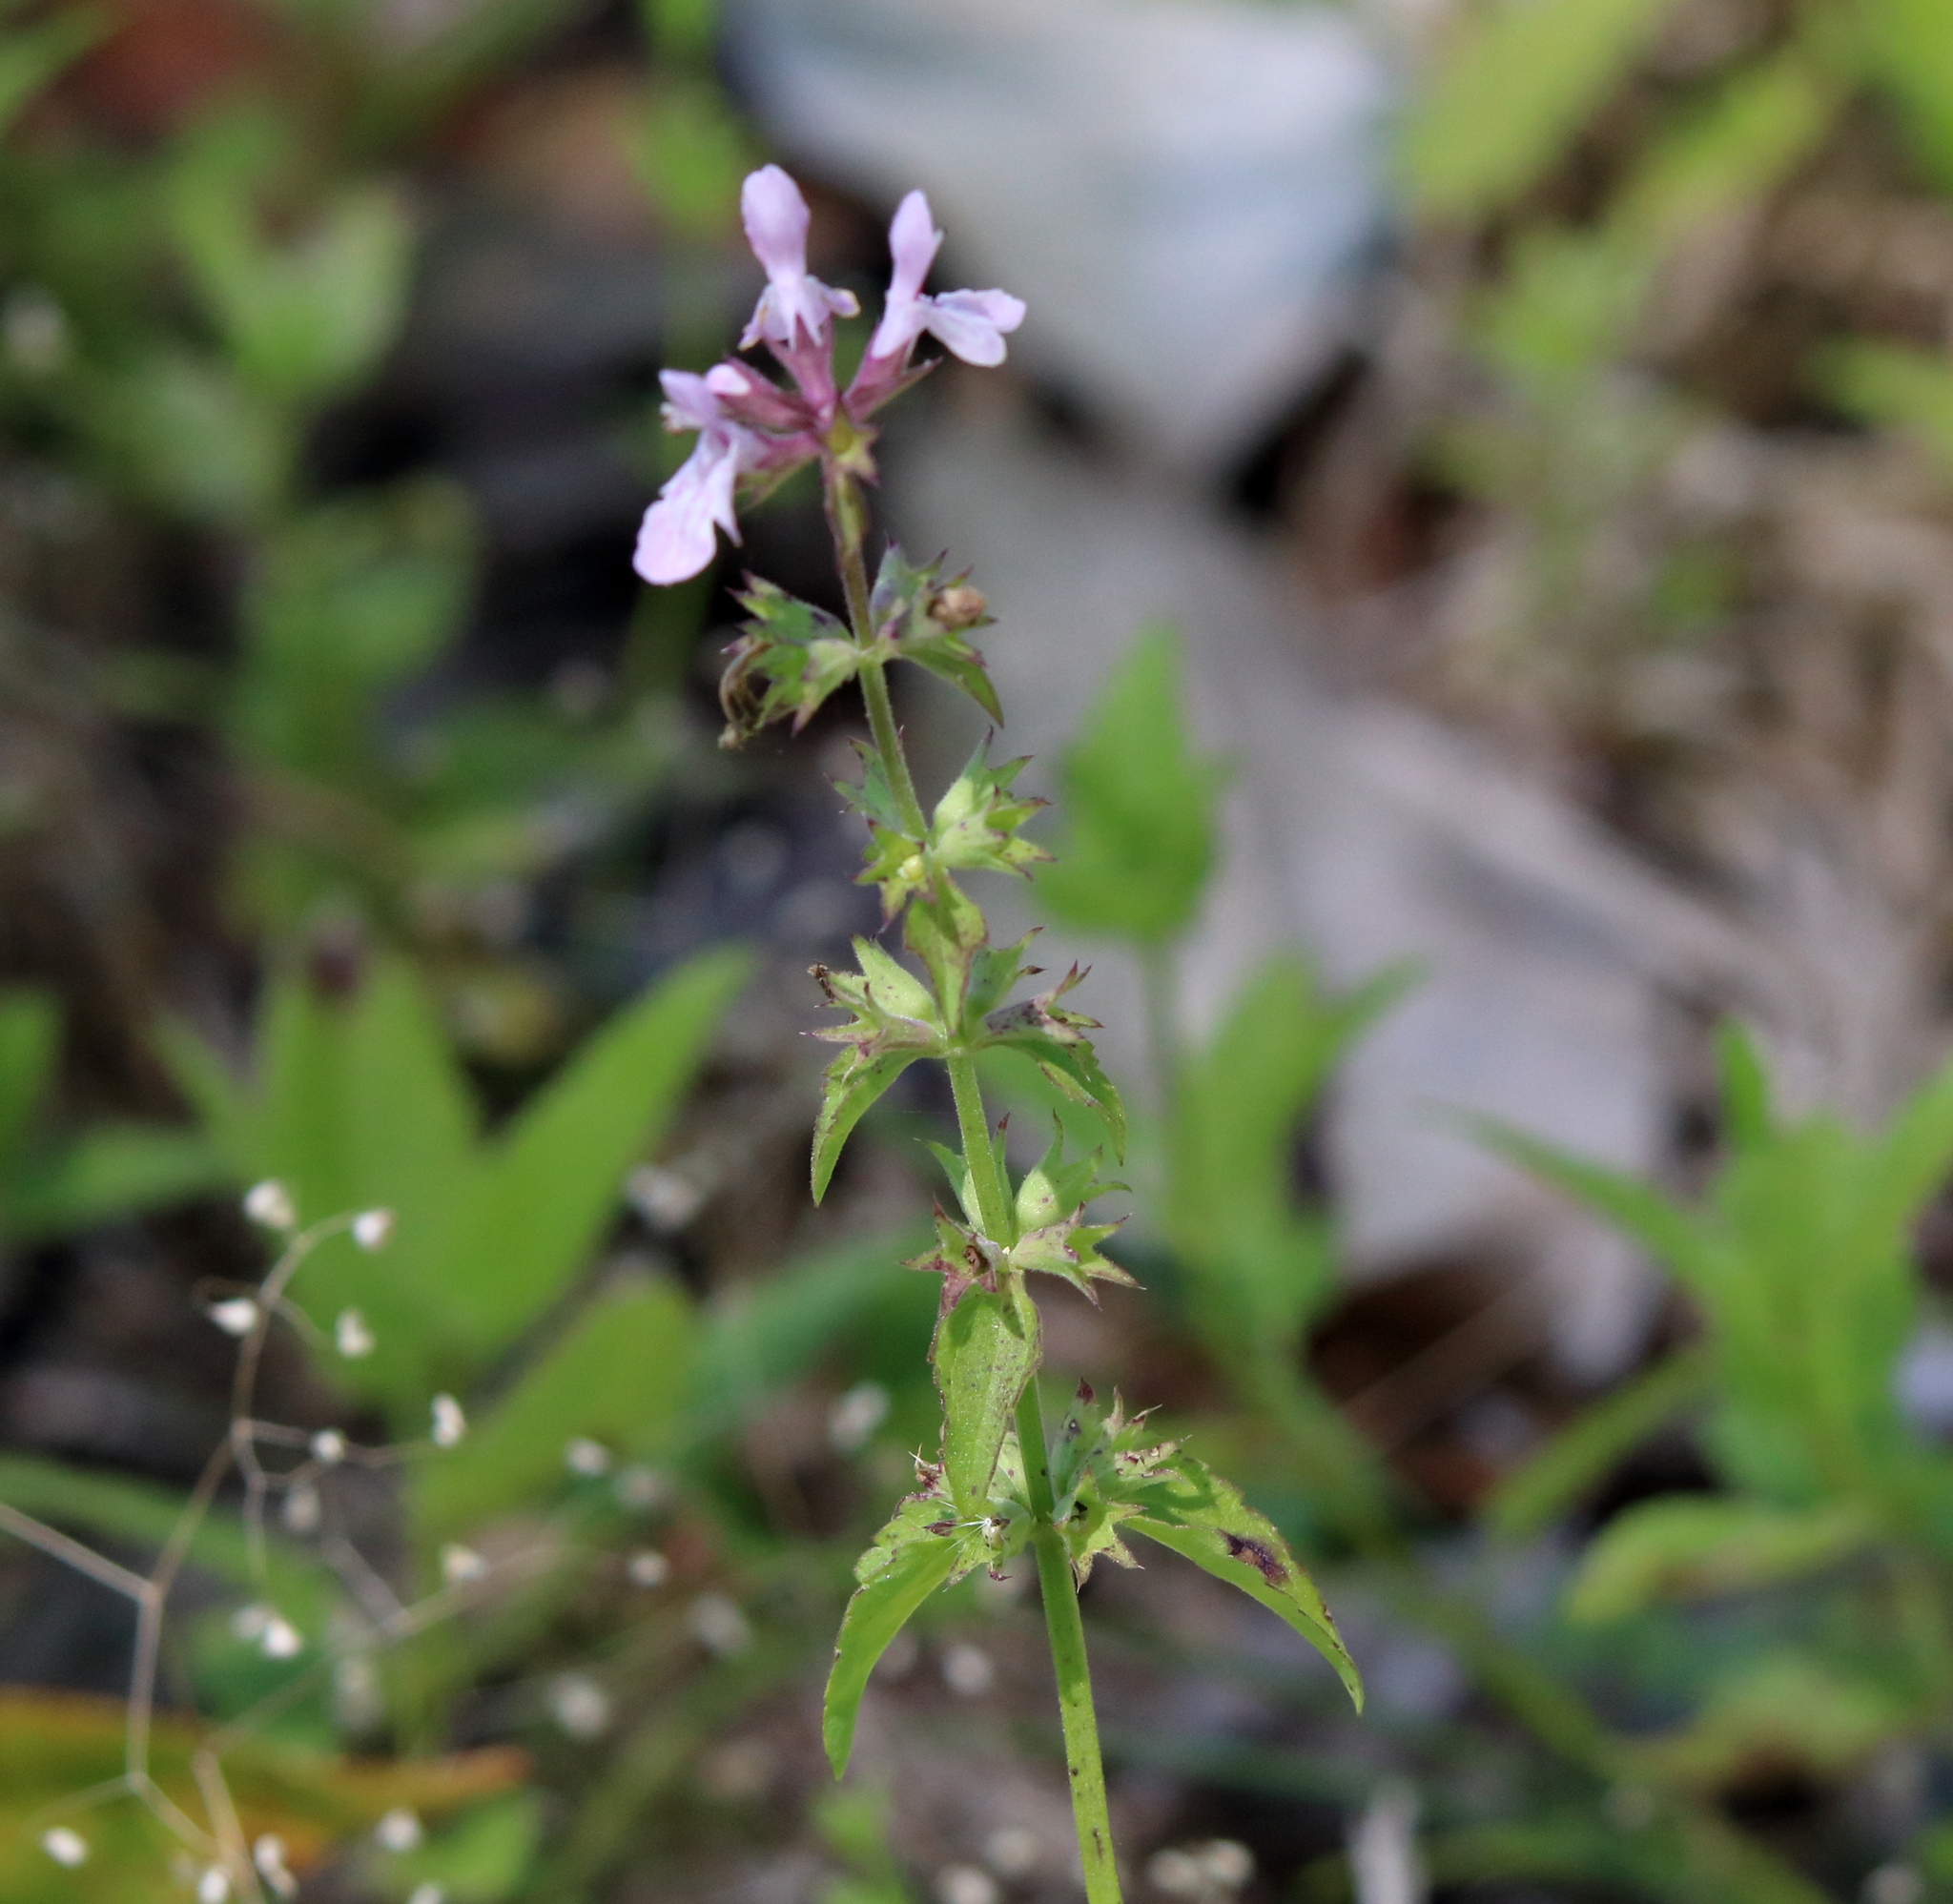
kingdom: Plantae
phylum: Tracheophyta
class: Magnoliopsida
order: Lamiales
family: Lamiaceae
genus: Stachys
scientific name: Stachys floridana
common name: Florida betony
